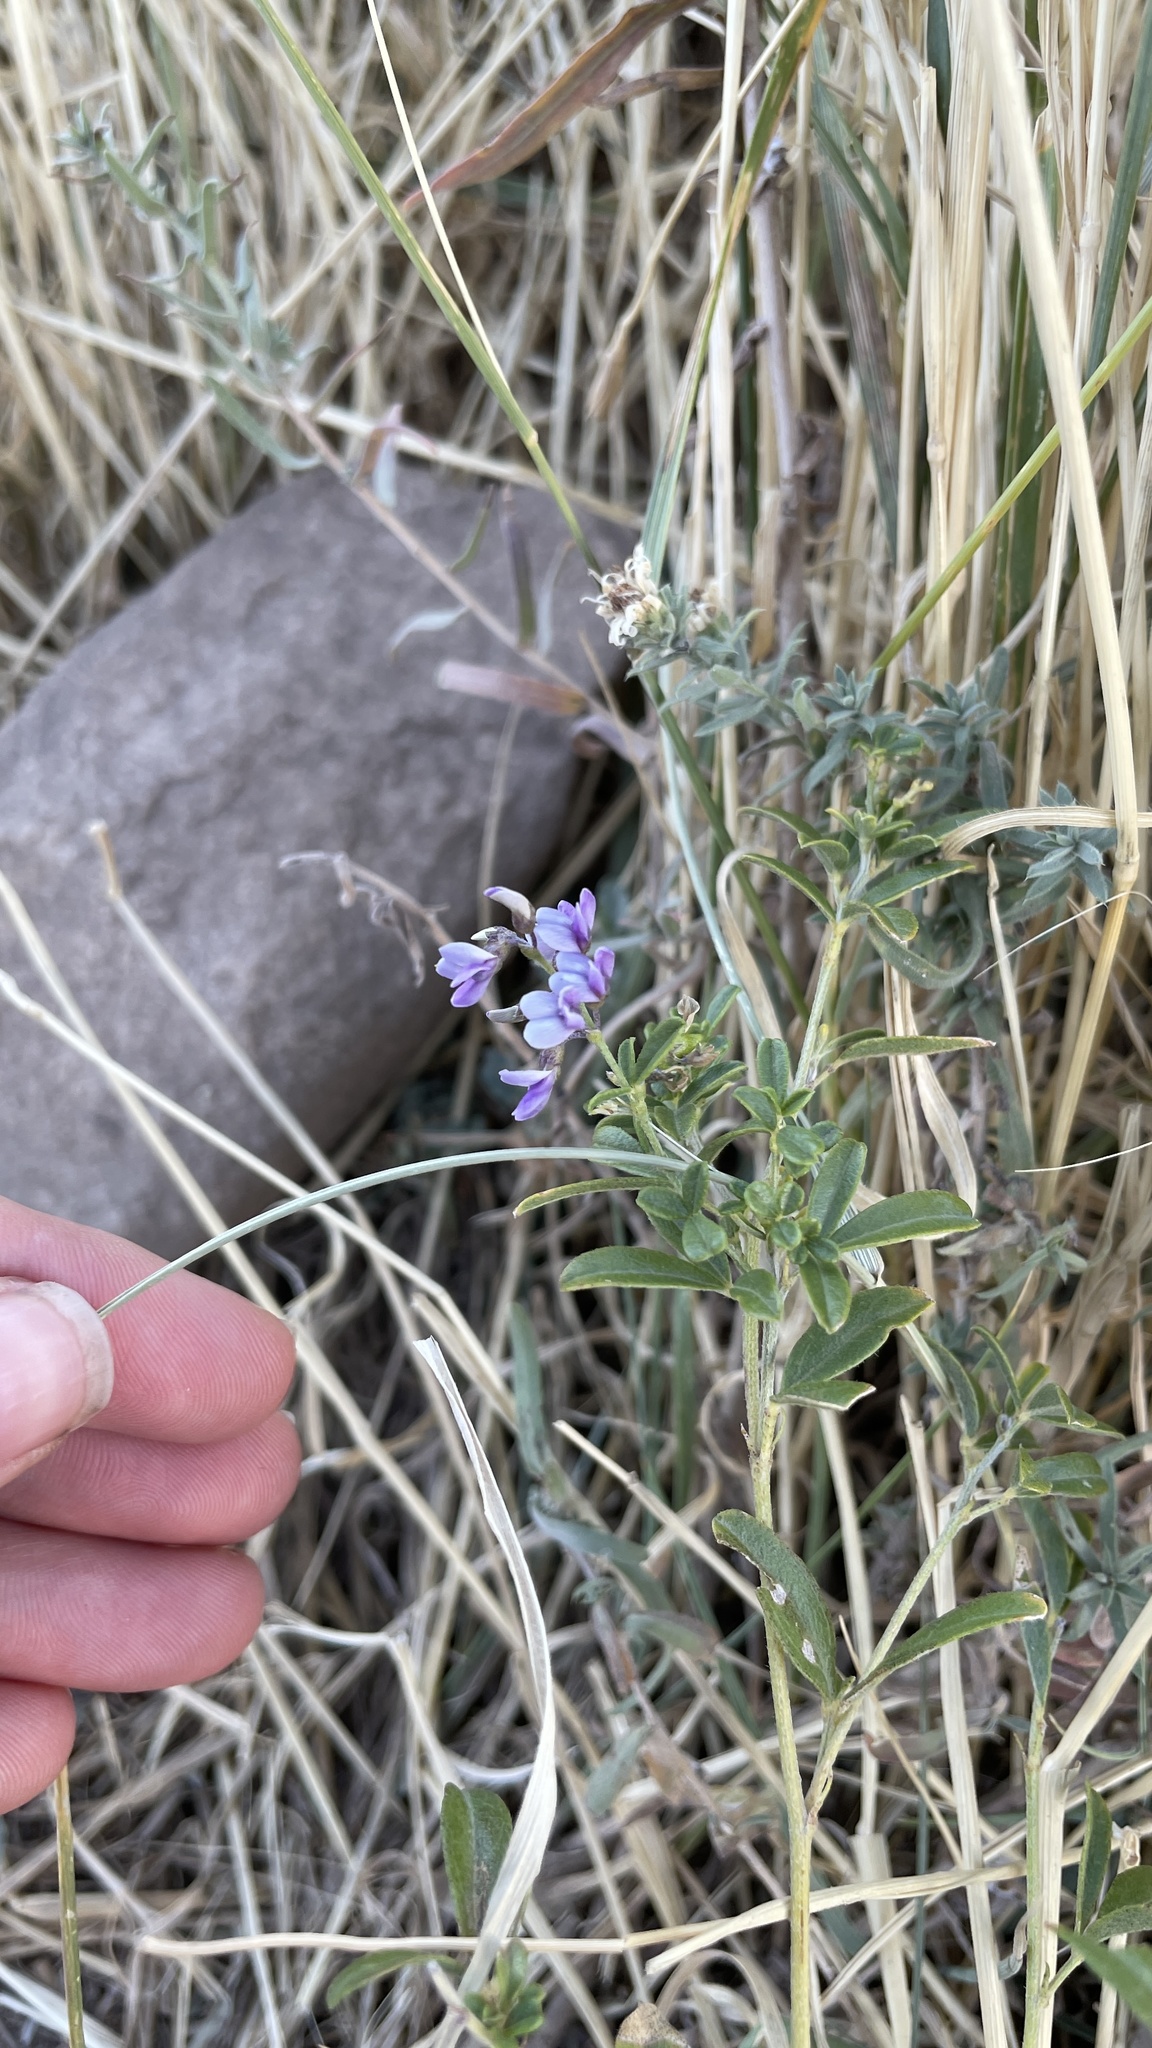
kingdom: Plantae
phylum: Tracheophyta
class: Magnoliopsida
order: Fabales
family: Fabaceae
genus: Pediomelum
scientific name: Pediomelum tenuiflorum
